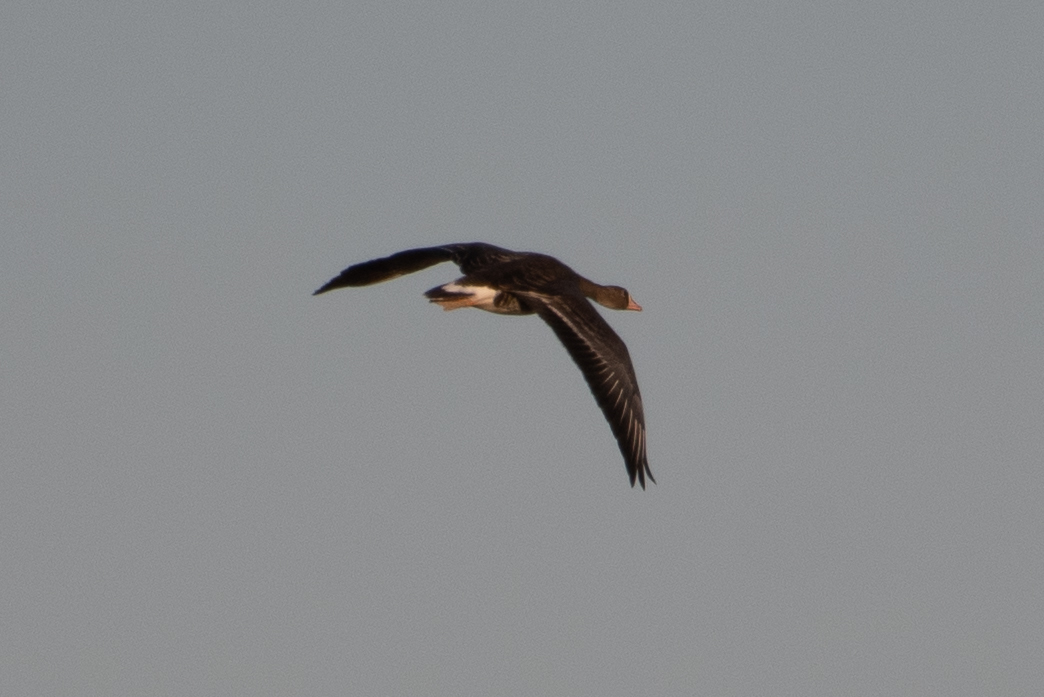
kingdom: Animalia
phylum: Chordata
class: Aves
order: Anseriformes
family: Anatidae
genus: Anser
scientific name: Anser albifrons
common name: Greater white-fronted goose
